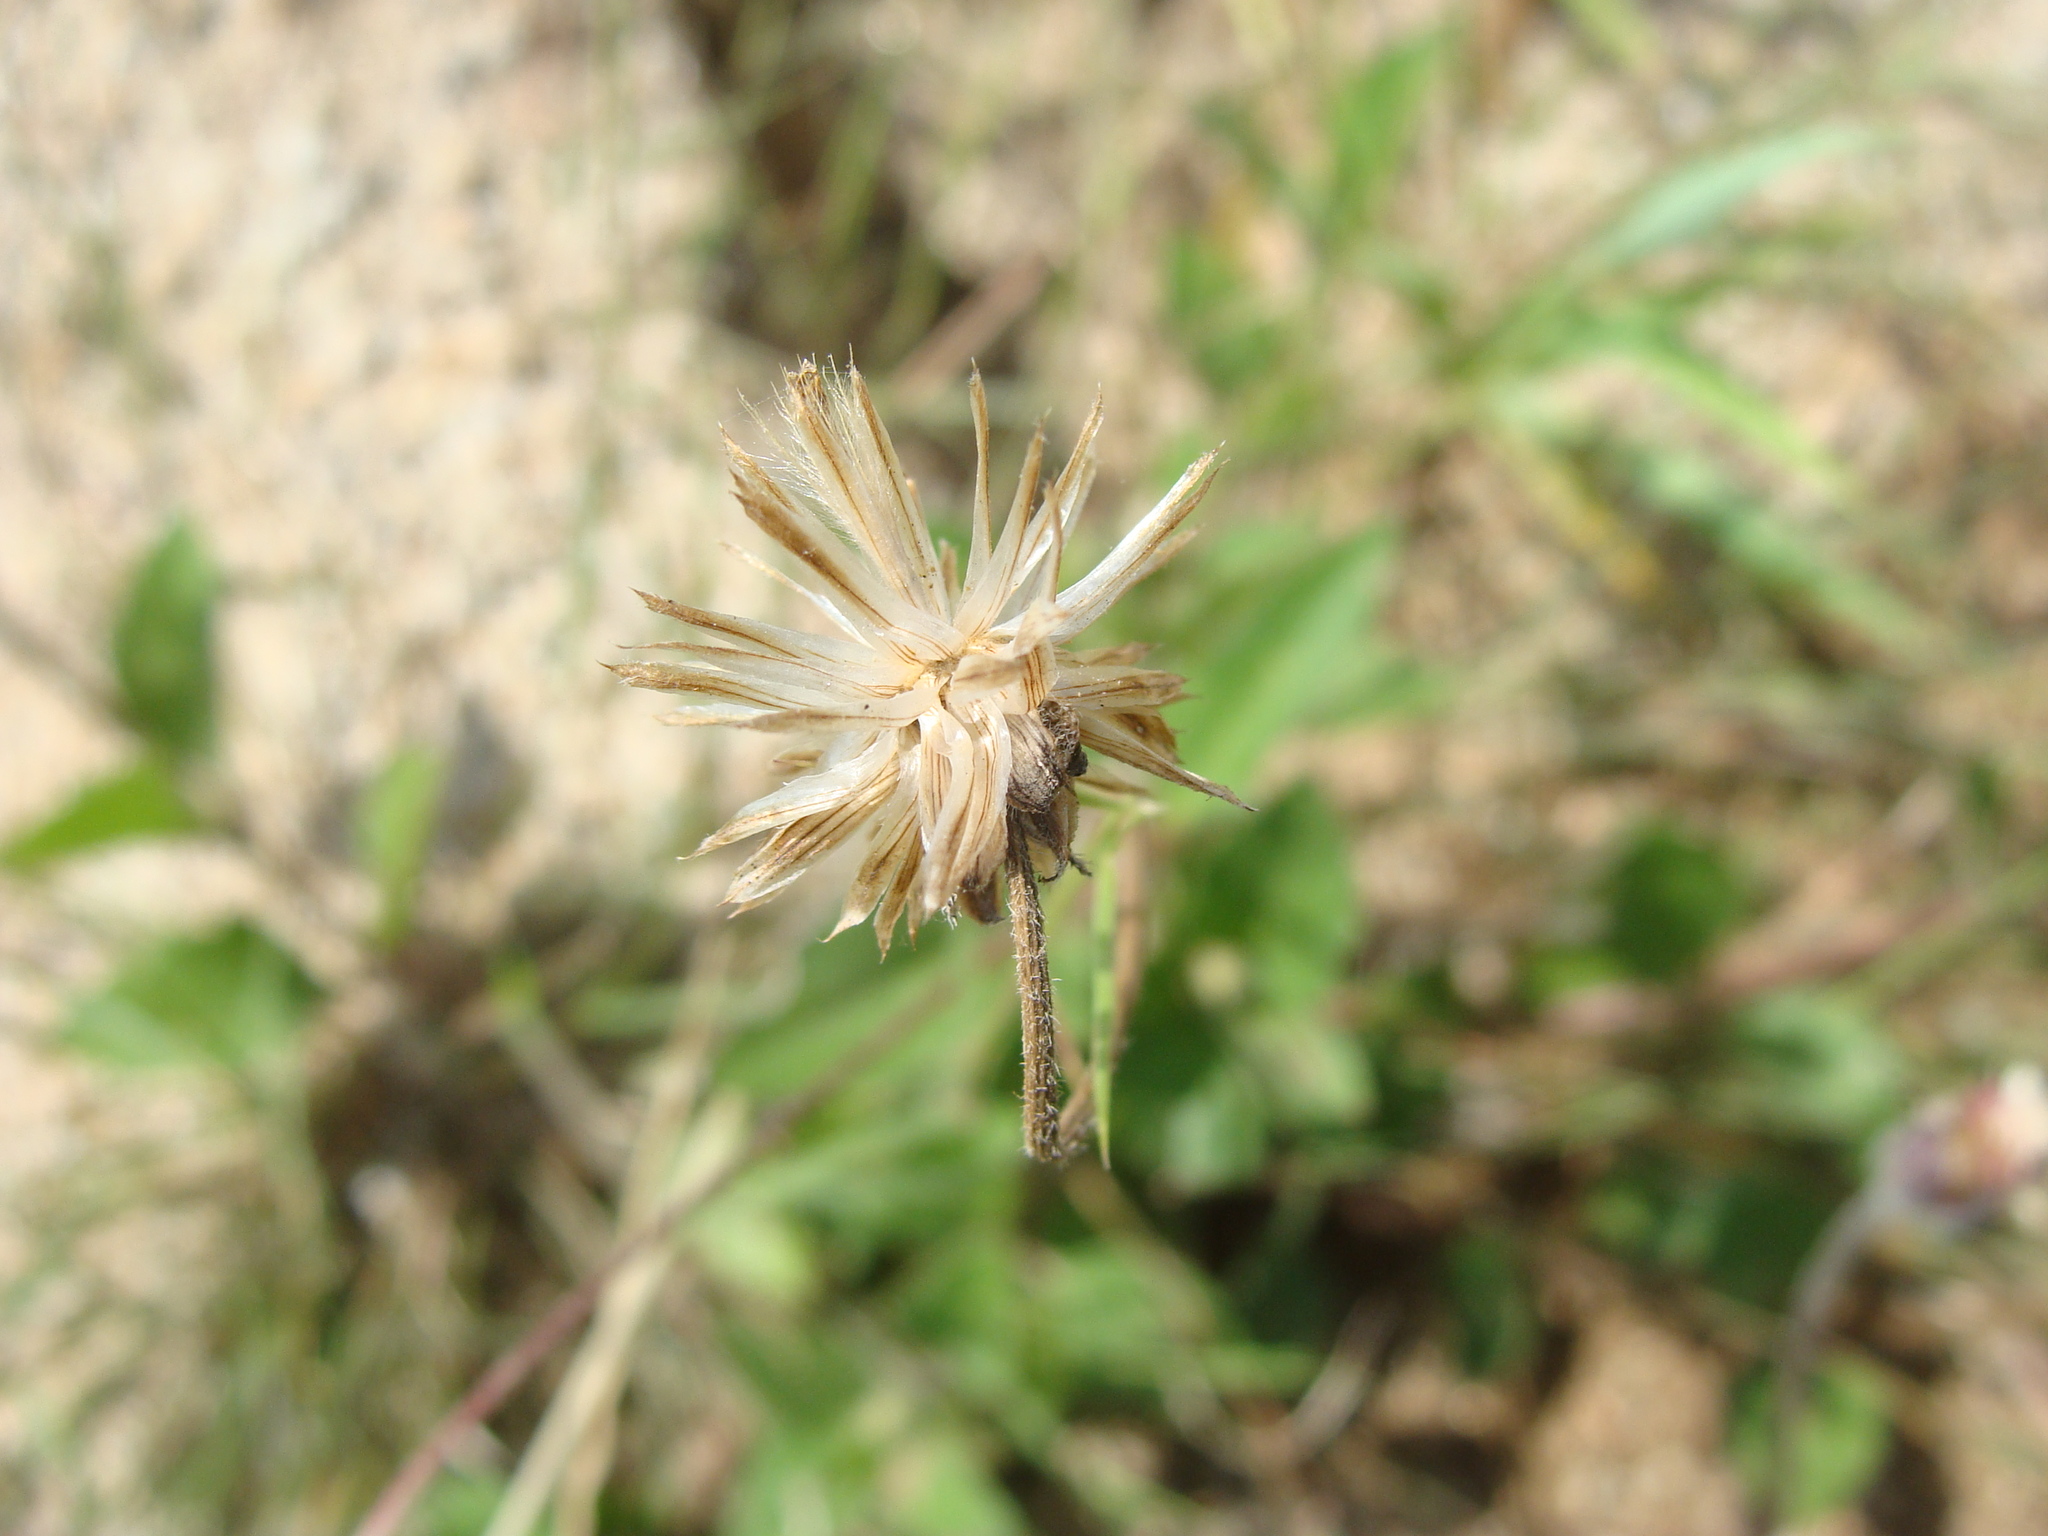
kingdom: Plantae
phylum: Tracheophyta
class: Magnoliopsida
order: Asterales
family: Asteraceae
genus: Tridax
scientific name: Tridax procumbens
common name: Coatbuttons
